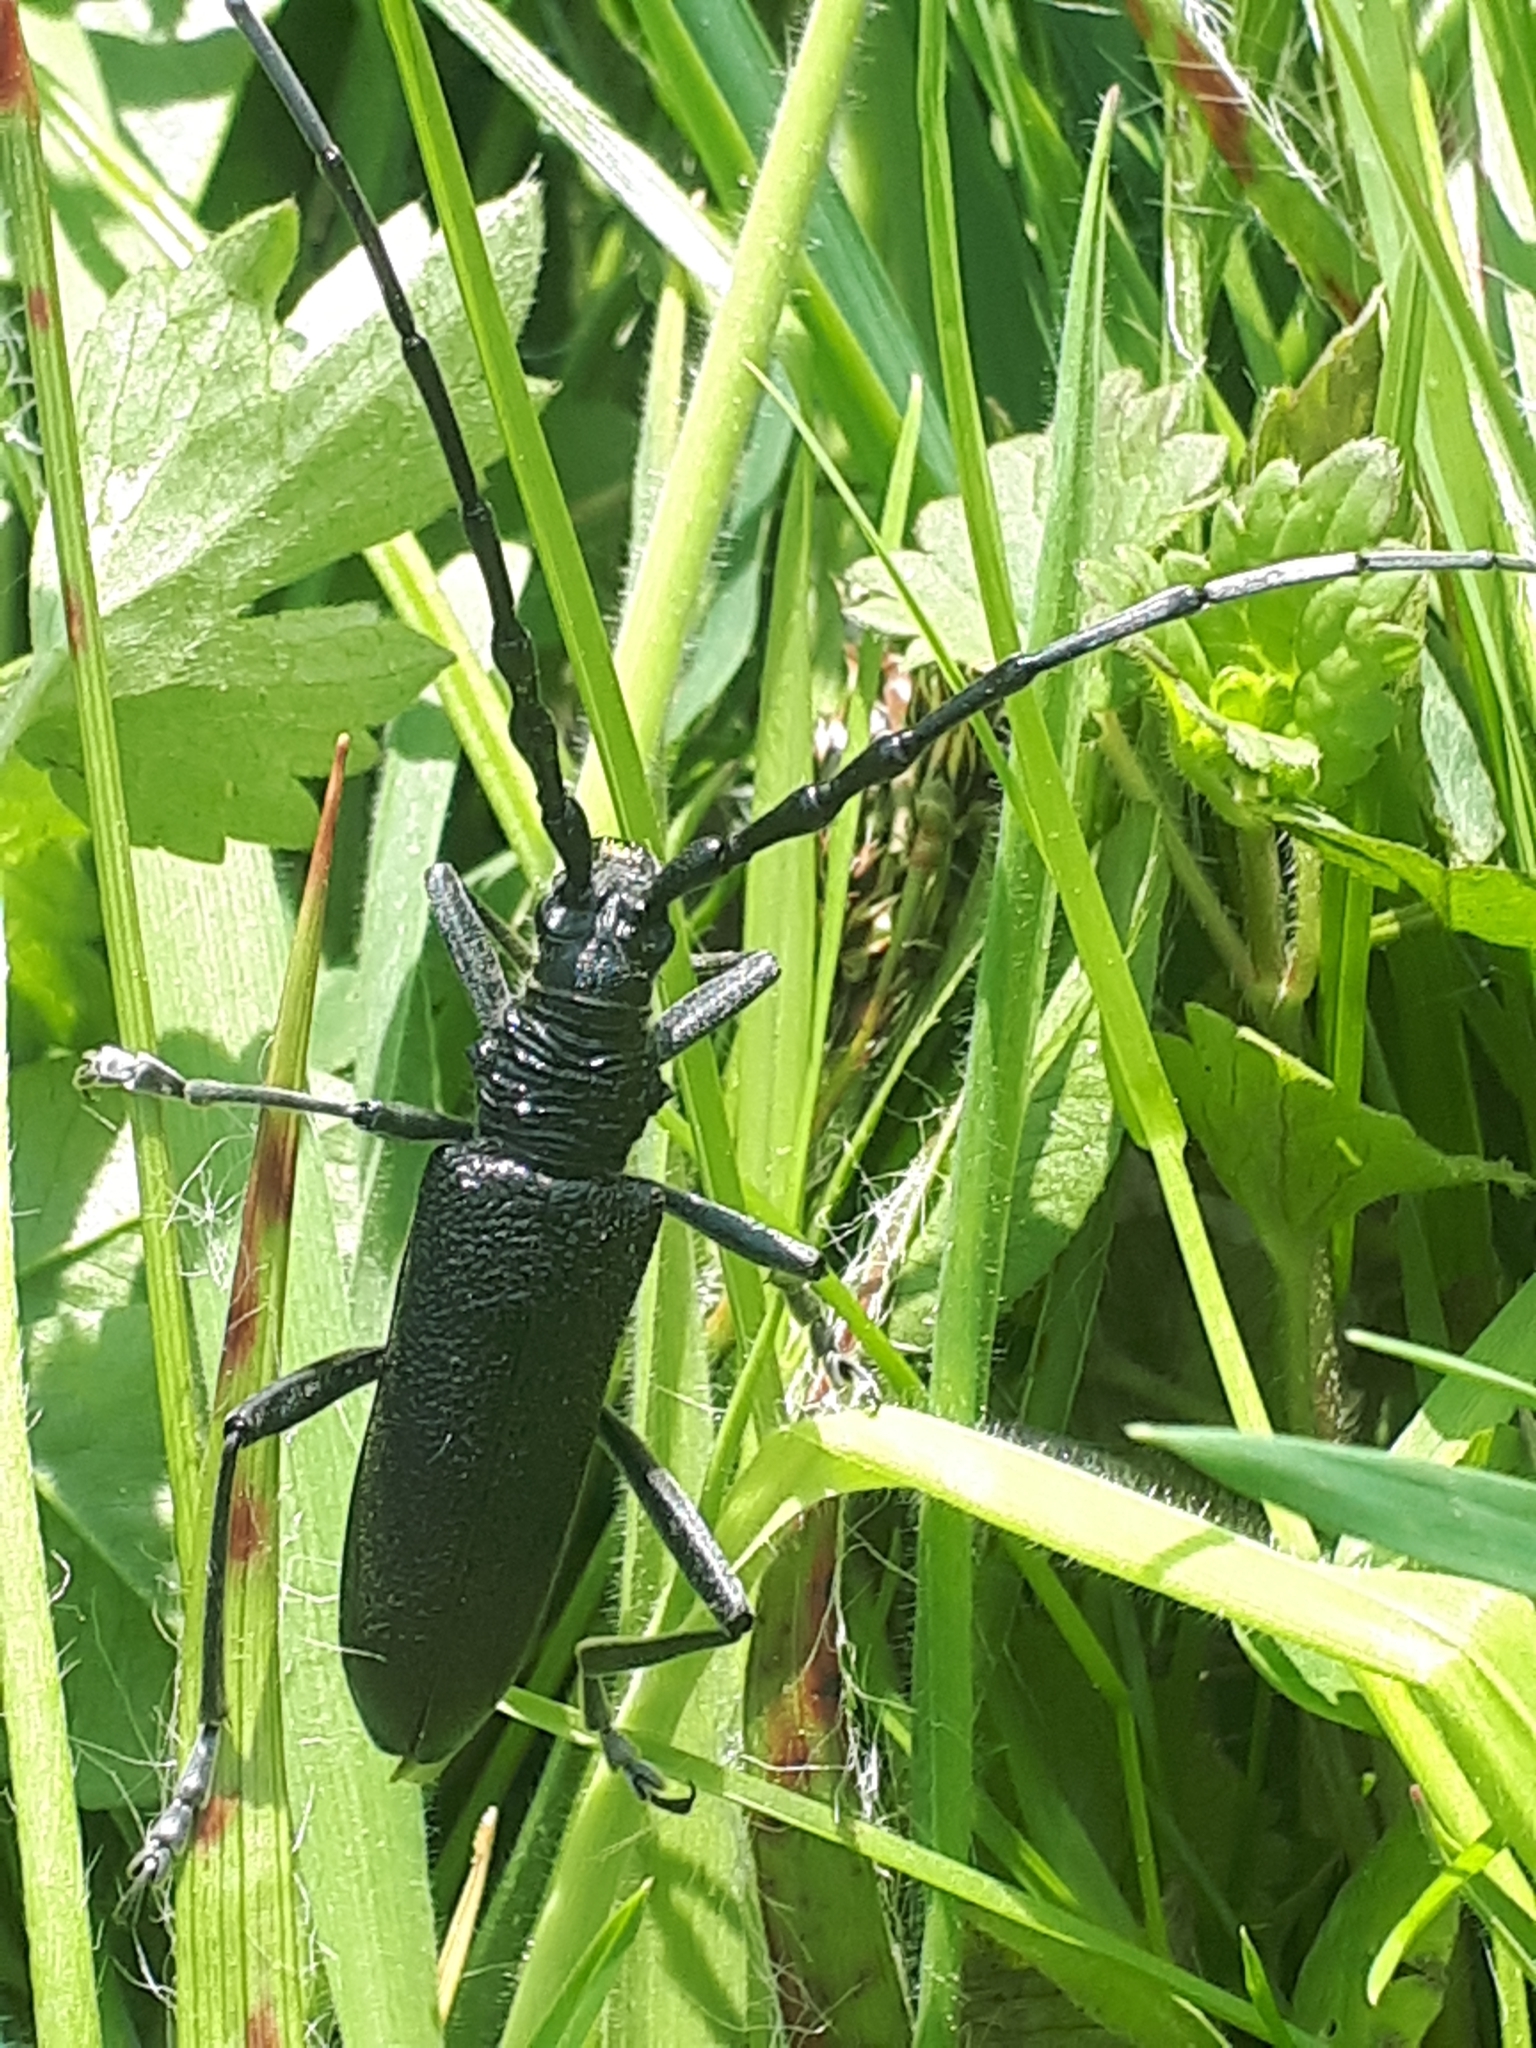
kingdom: Animalia
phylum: Arthropoda
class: Insecta
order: Coleoptera
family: Cerambycidae
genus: Cerambyx
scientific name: Cerambyx scopolii
